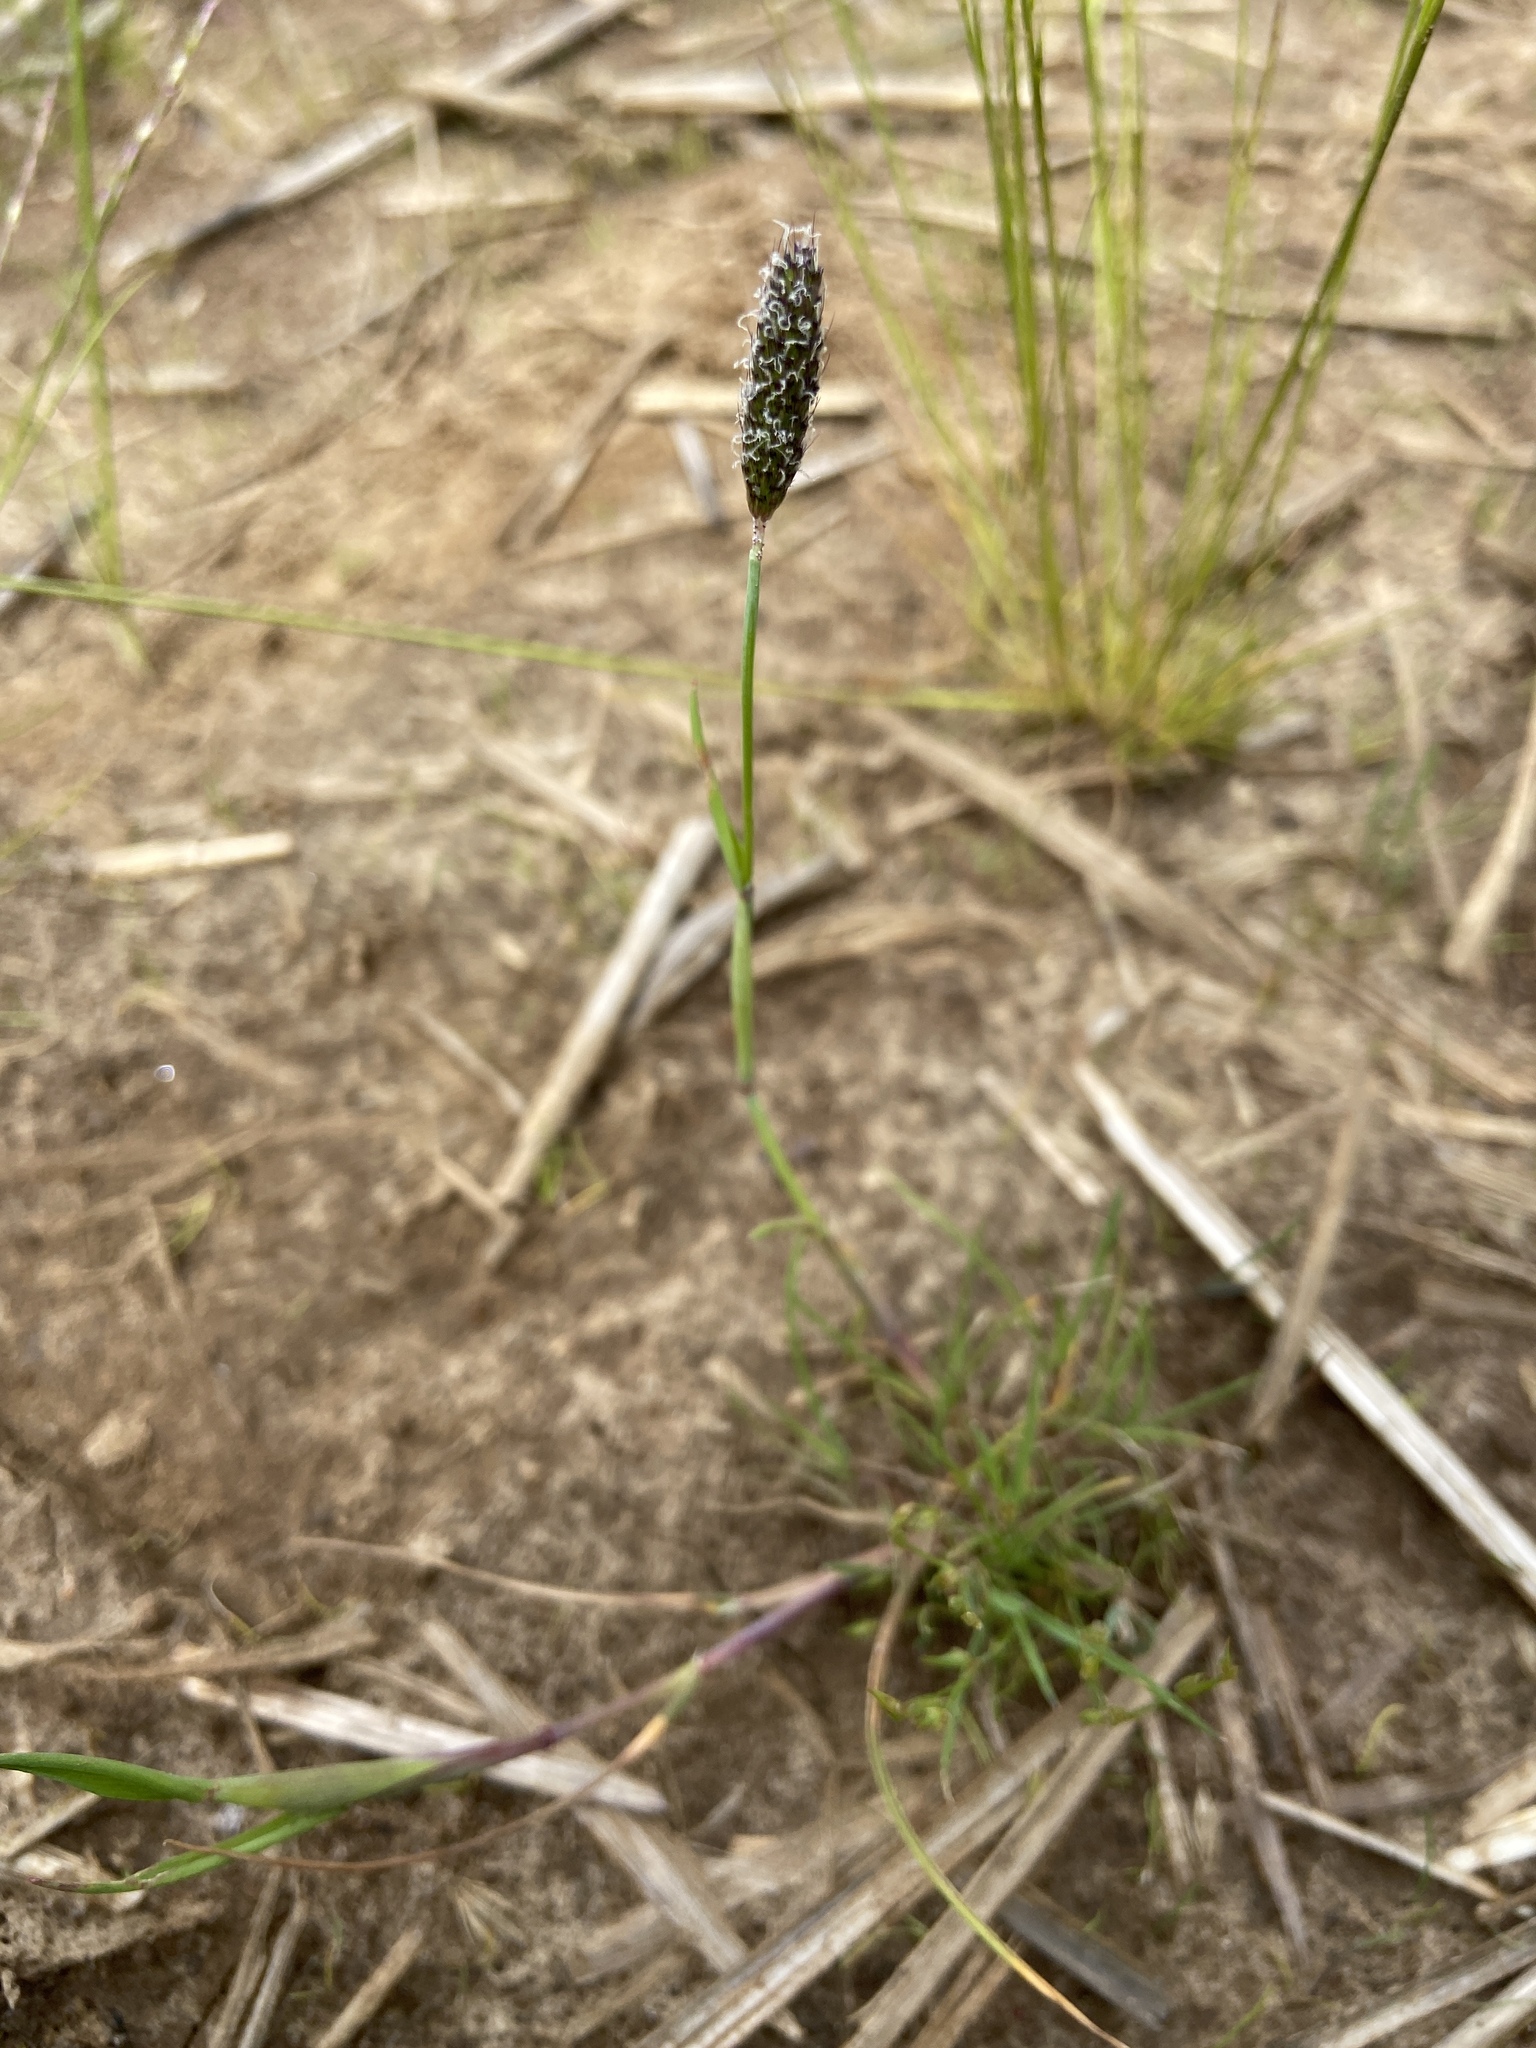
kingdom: Plantae
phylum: Tracheophyta
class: Liliopsida
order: Poales
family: Poaceae
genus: Alopecurus
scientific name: Alopecurus geniculatus
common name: Water foxtail
